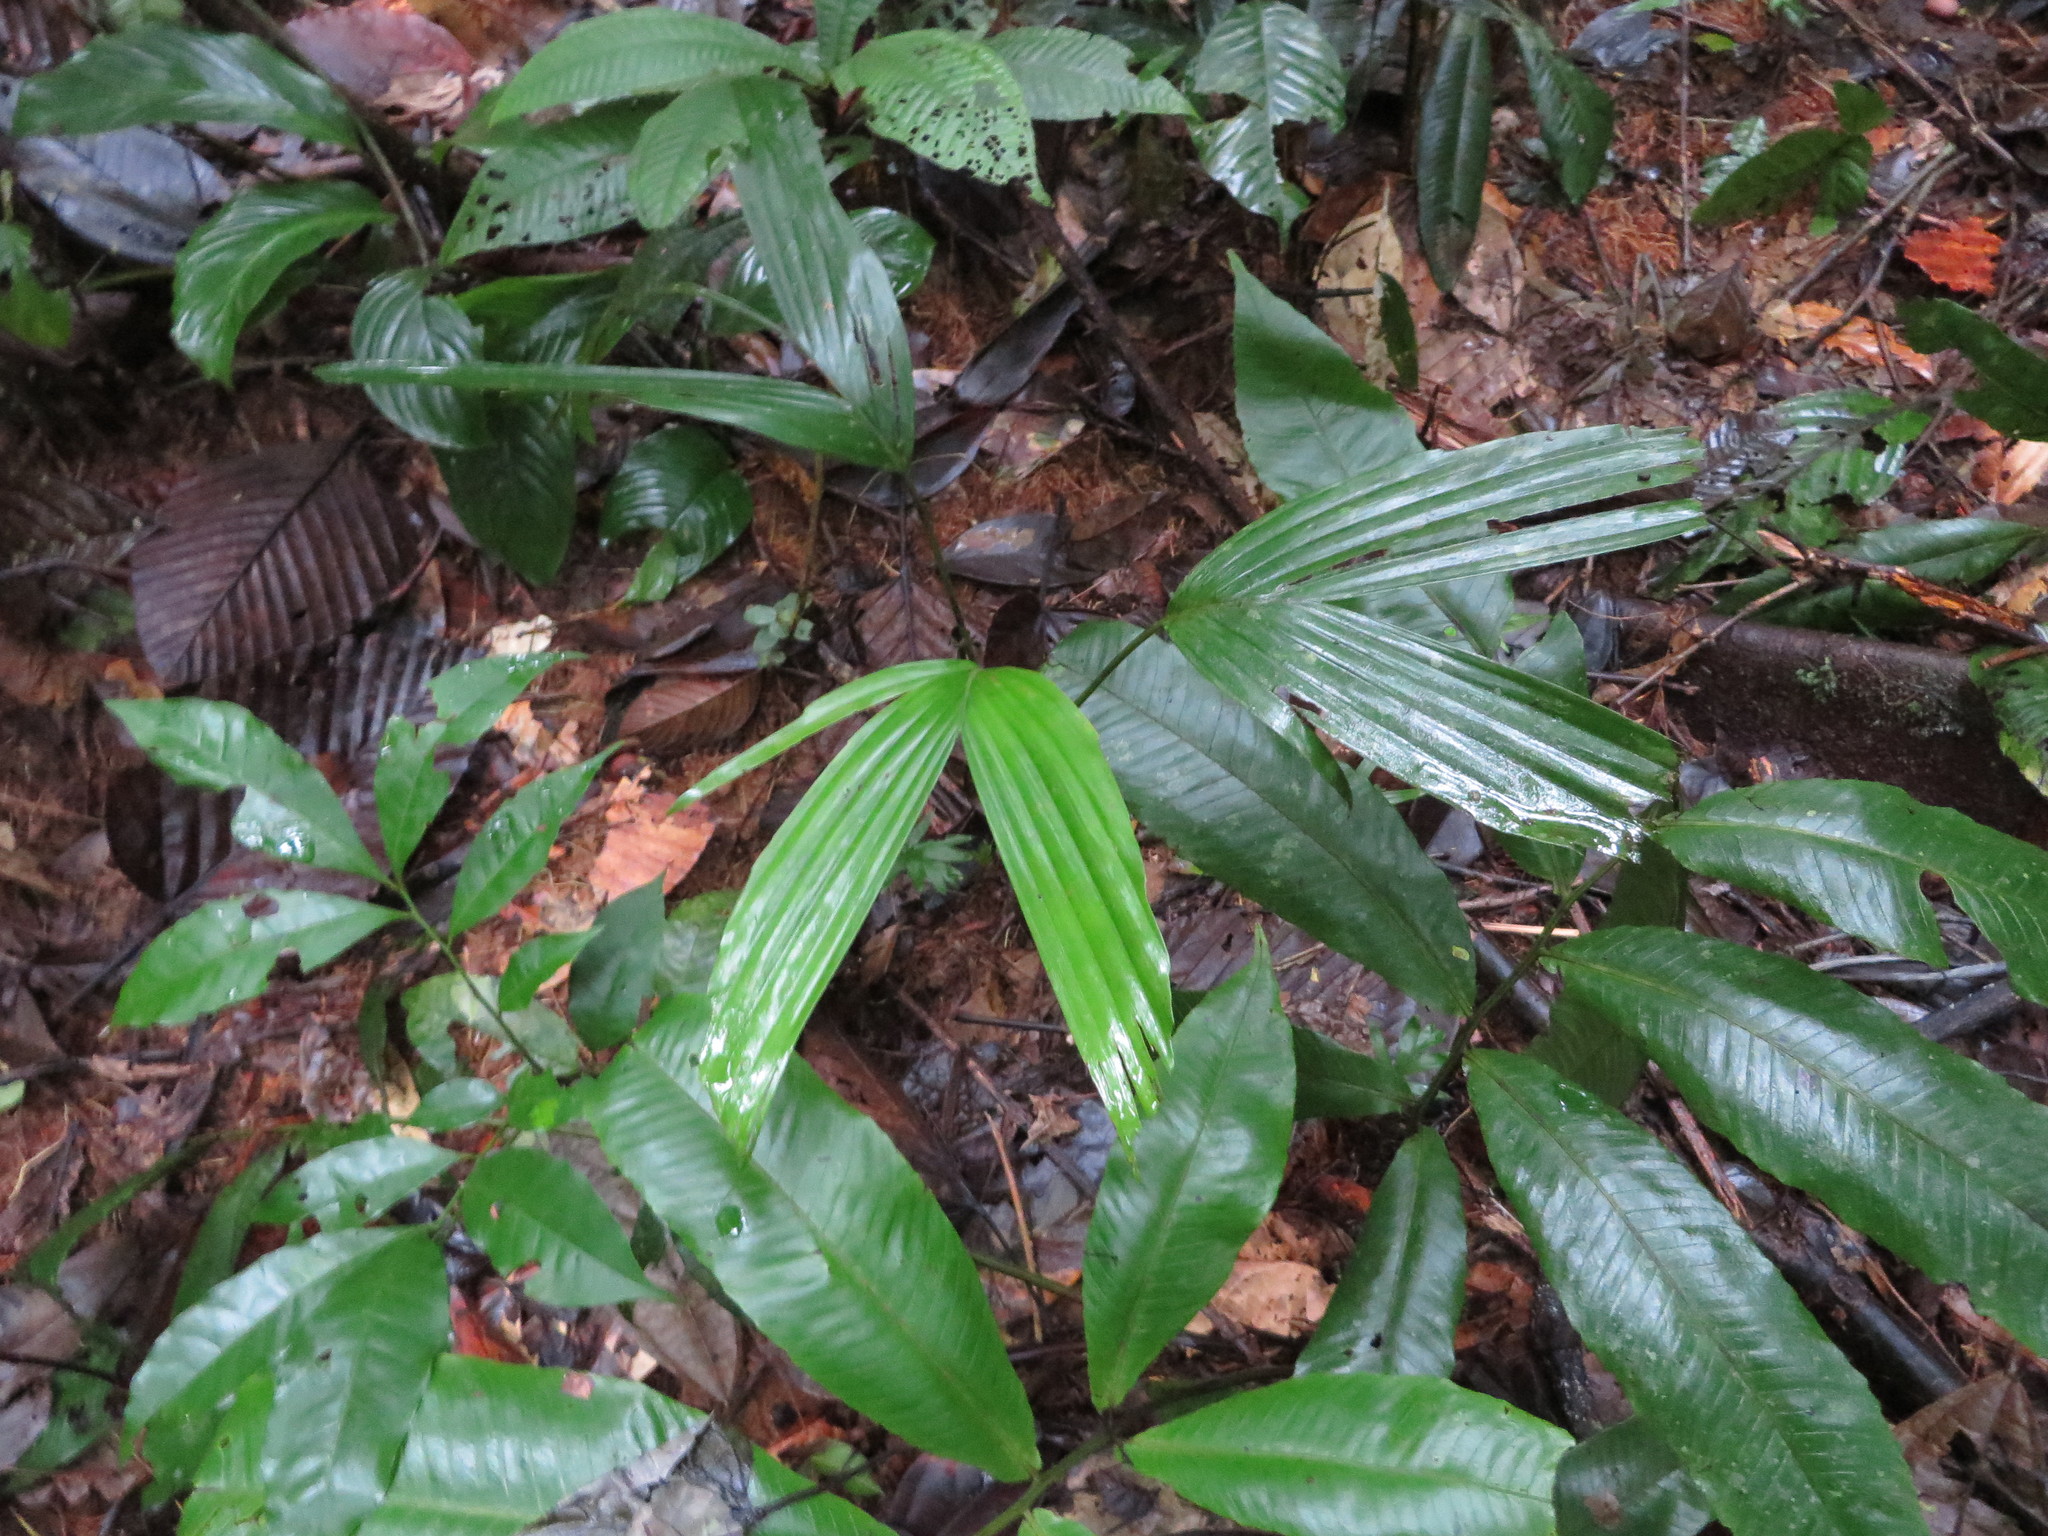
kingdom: Plantae
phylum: Tracheophyta
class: Liliopsida
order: Arecales
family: Arecaceae
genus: Socratea
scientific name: Socratea exorrhiza
